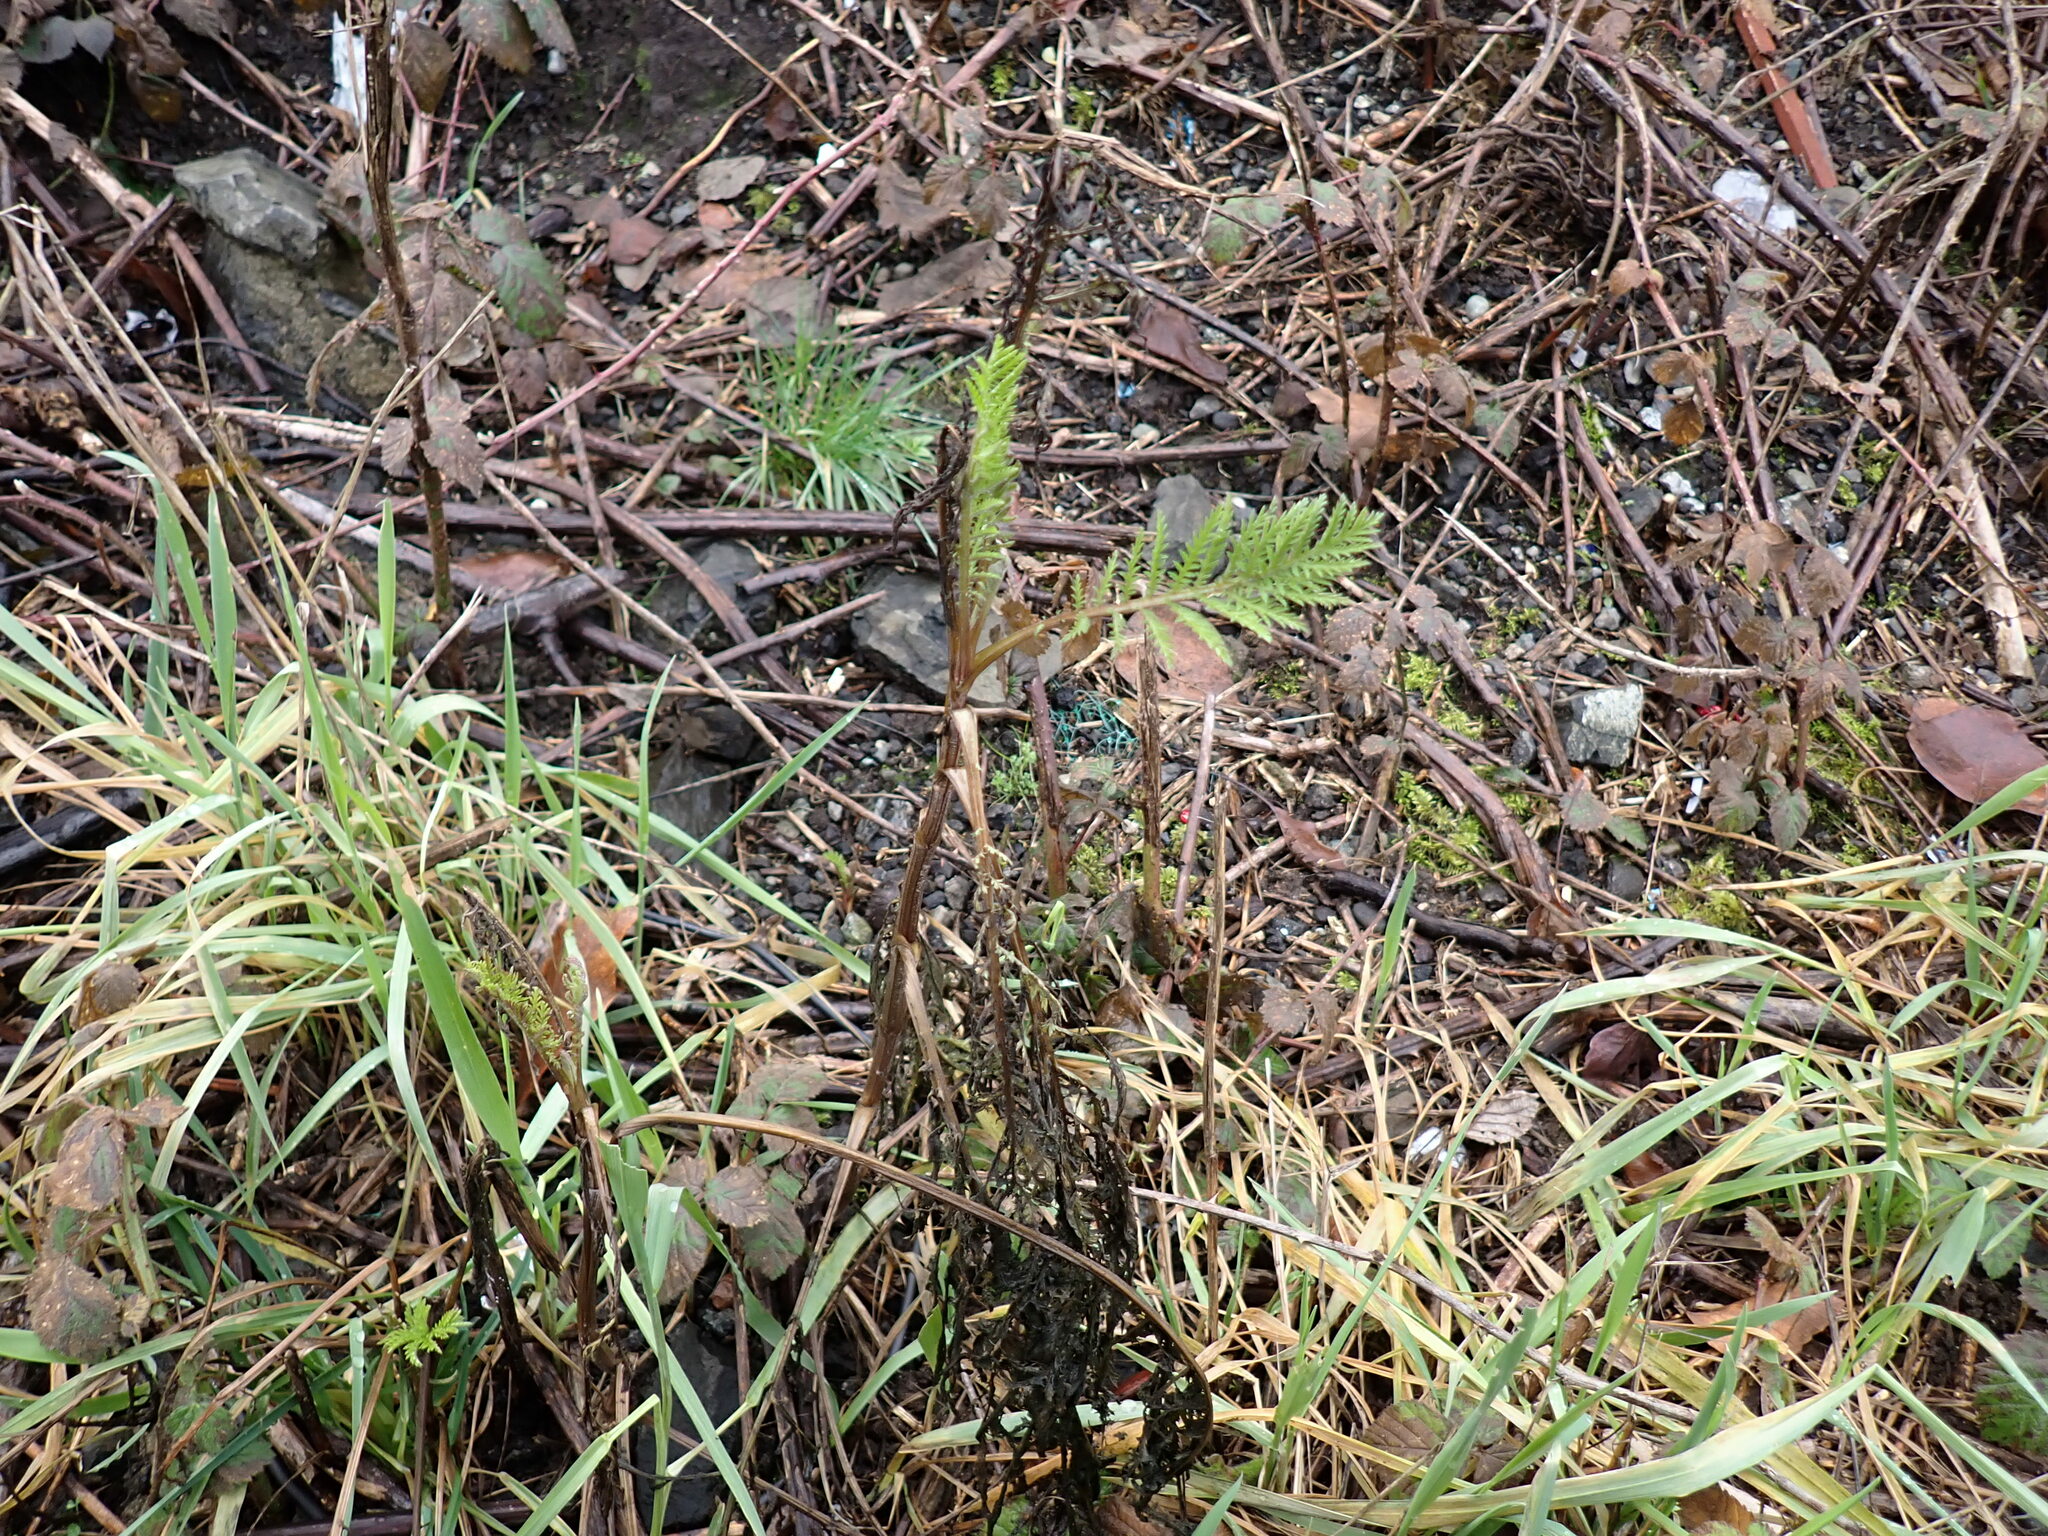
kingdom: Plantae
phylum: Tracheophyta
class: Magnoliopsida
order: Asterales
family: Asteraceae
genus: Tanacetum
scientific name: Tanacetum vulgare
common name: Common tansy
